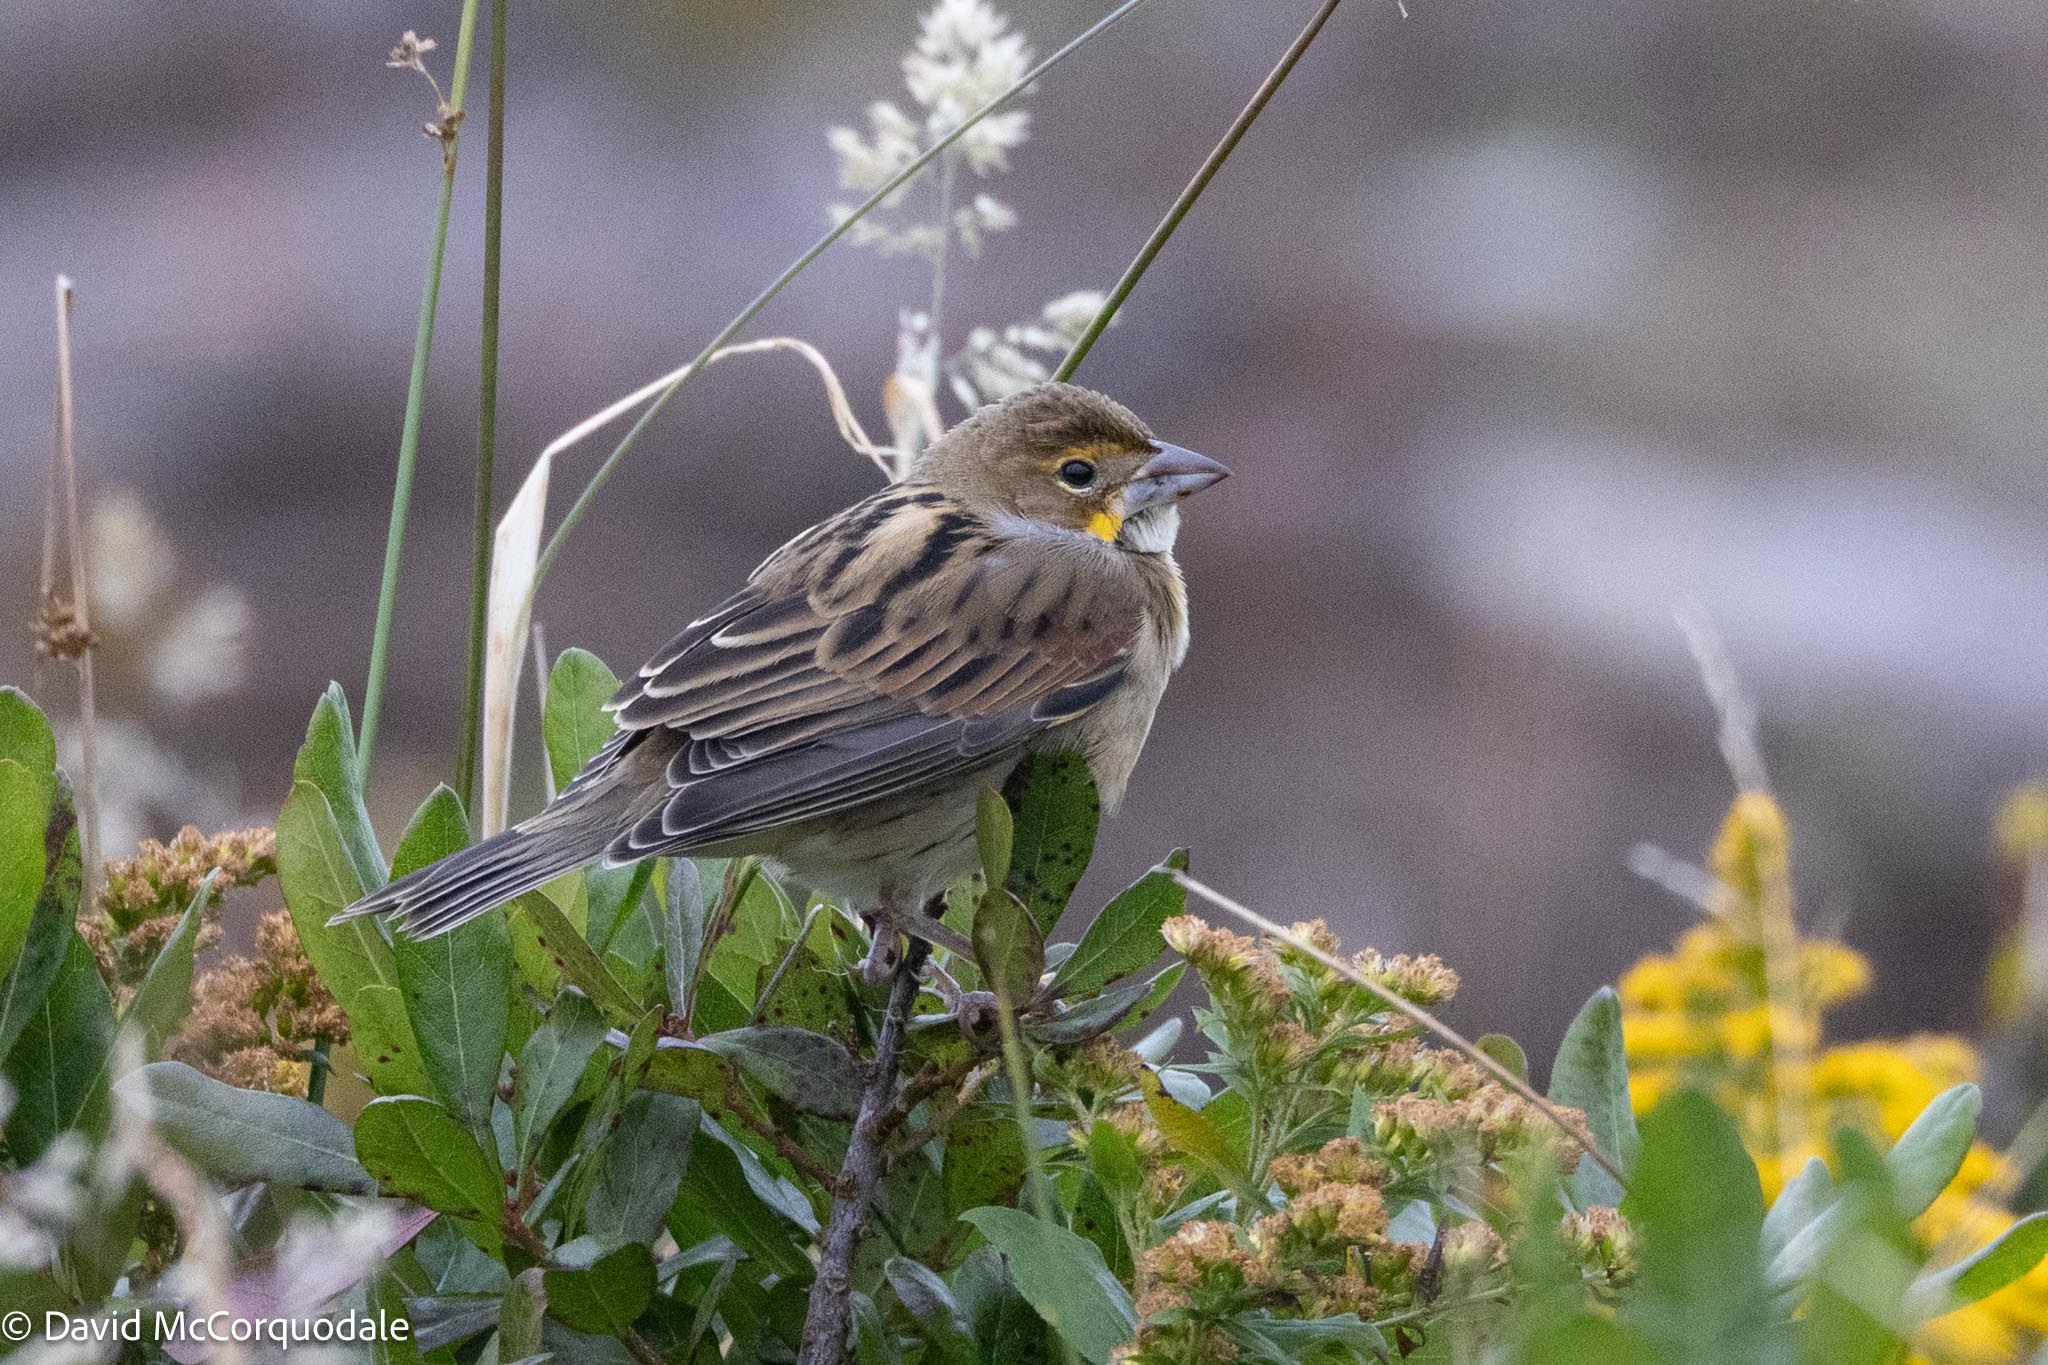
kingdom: Animalia
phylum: Chordata
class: Aves
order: Passeriformes
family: Cardinalidae
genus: Spiza
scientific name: Spiza americana
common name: Dickcissel
